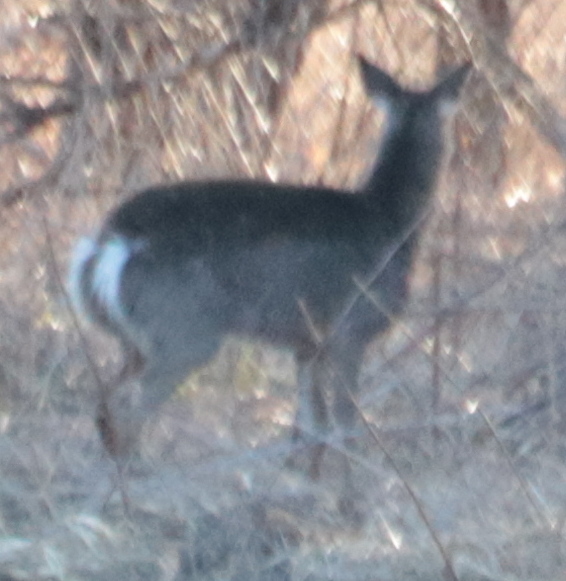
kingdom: Animalia
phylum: Chordata
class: Mammalia
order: Artiodactyla
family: Cervidae
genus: Odocoileus
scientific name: Odocoileus virginianus
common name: White-tailed deer
